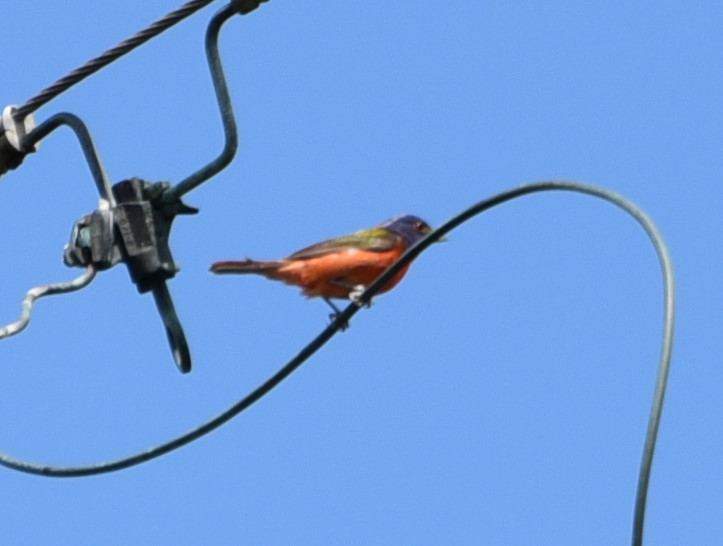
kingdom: Animalia
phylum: Chordata
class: Aves
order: Passeriformes
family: Cardinalidae
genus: Passerina
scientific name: Passerina ciris
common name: Painted bunting
